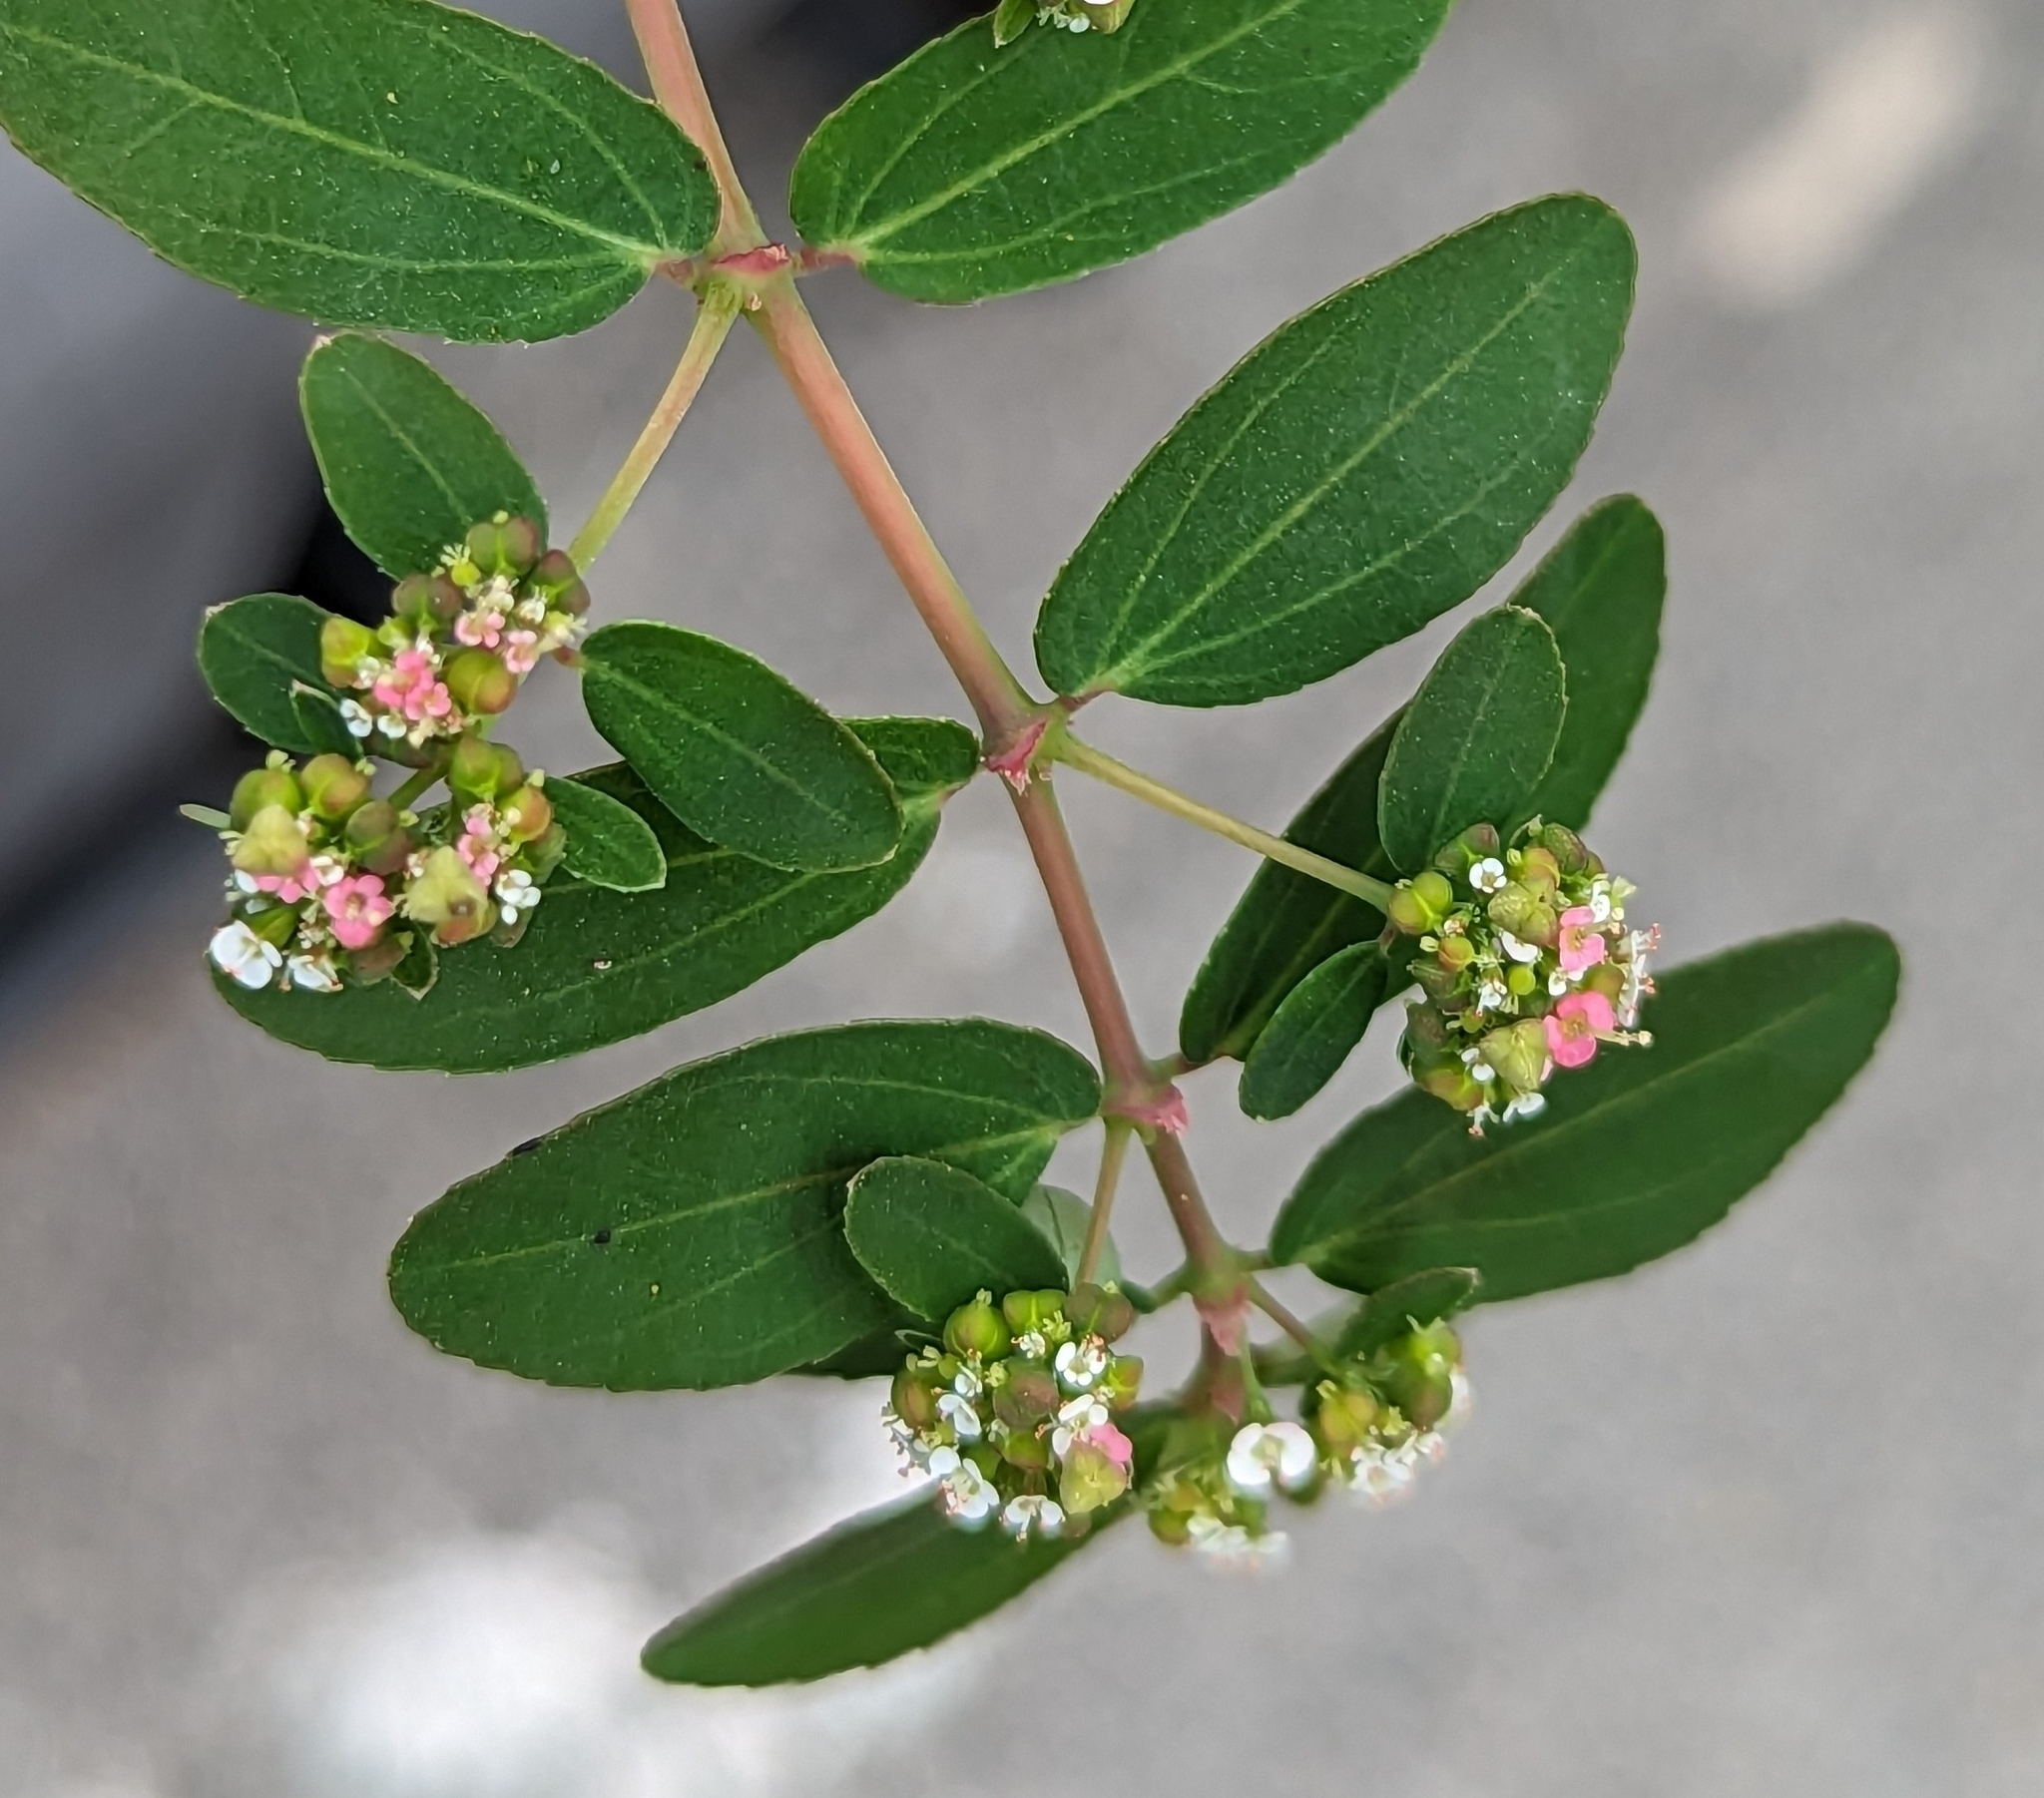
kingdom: Plantae
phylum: Tracheophyta
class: Magnoliopsida
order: Malpighiales
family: Euphorbiaceae
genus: Euphorbia
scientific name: Euphorbia hypericifolia
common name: Graceful sandmat
